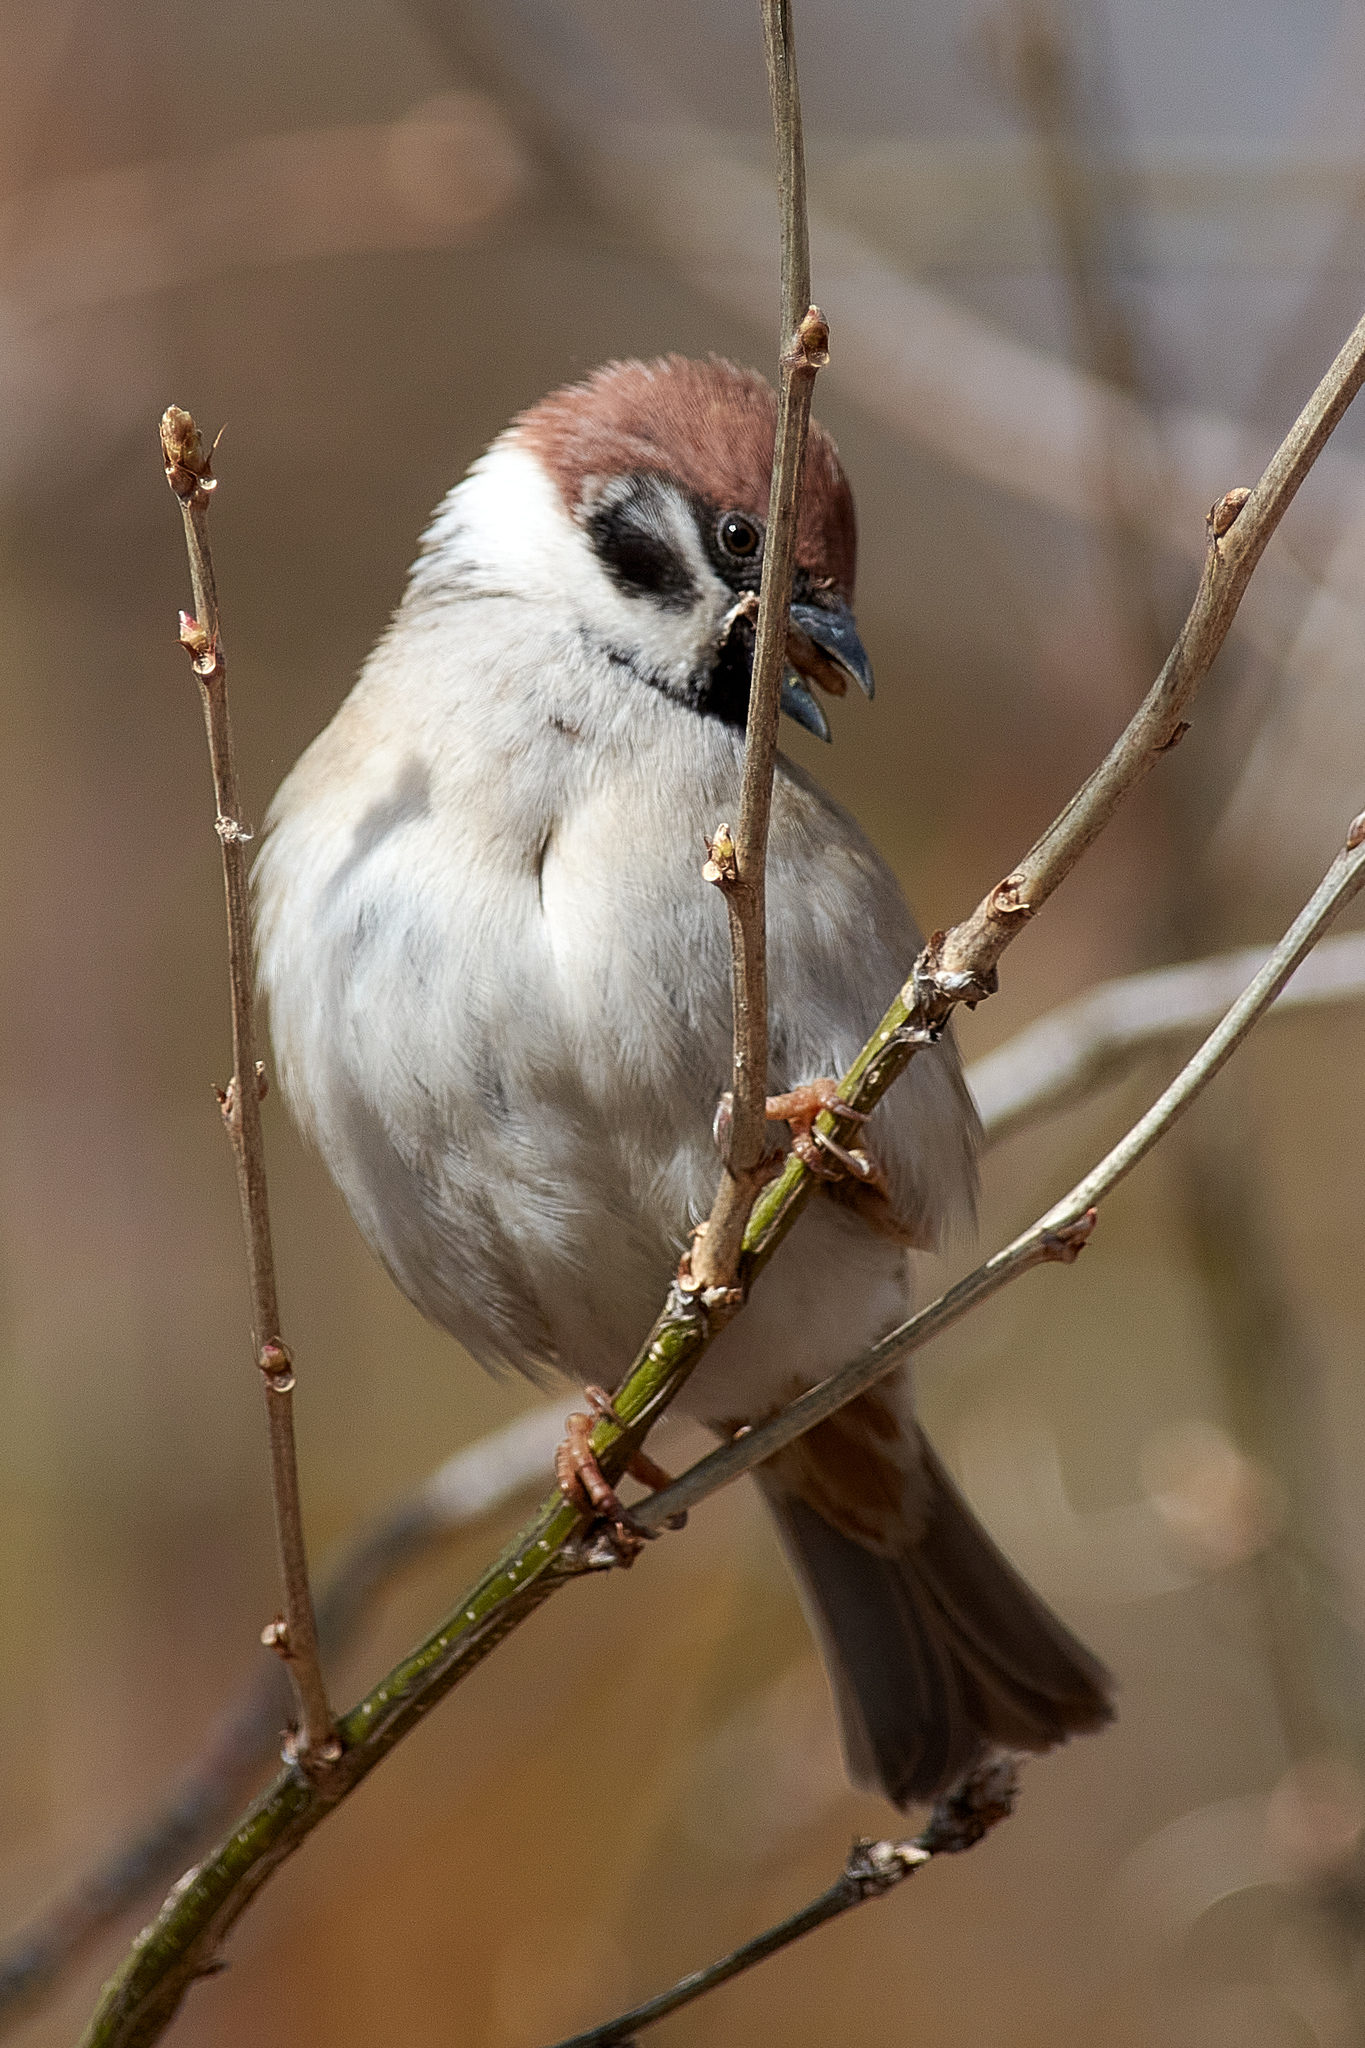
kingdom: Animalia
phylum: Chordata
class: Aves
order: Passeriformes
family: Passeridae
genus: Passer
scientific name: Passer montanus
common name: Eurasian tree sparrow
